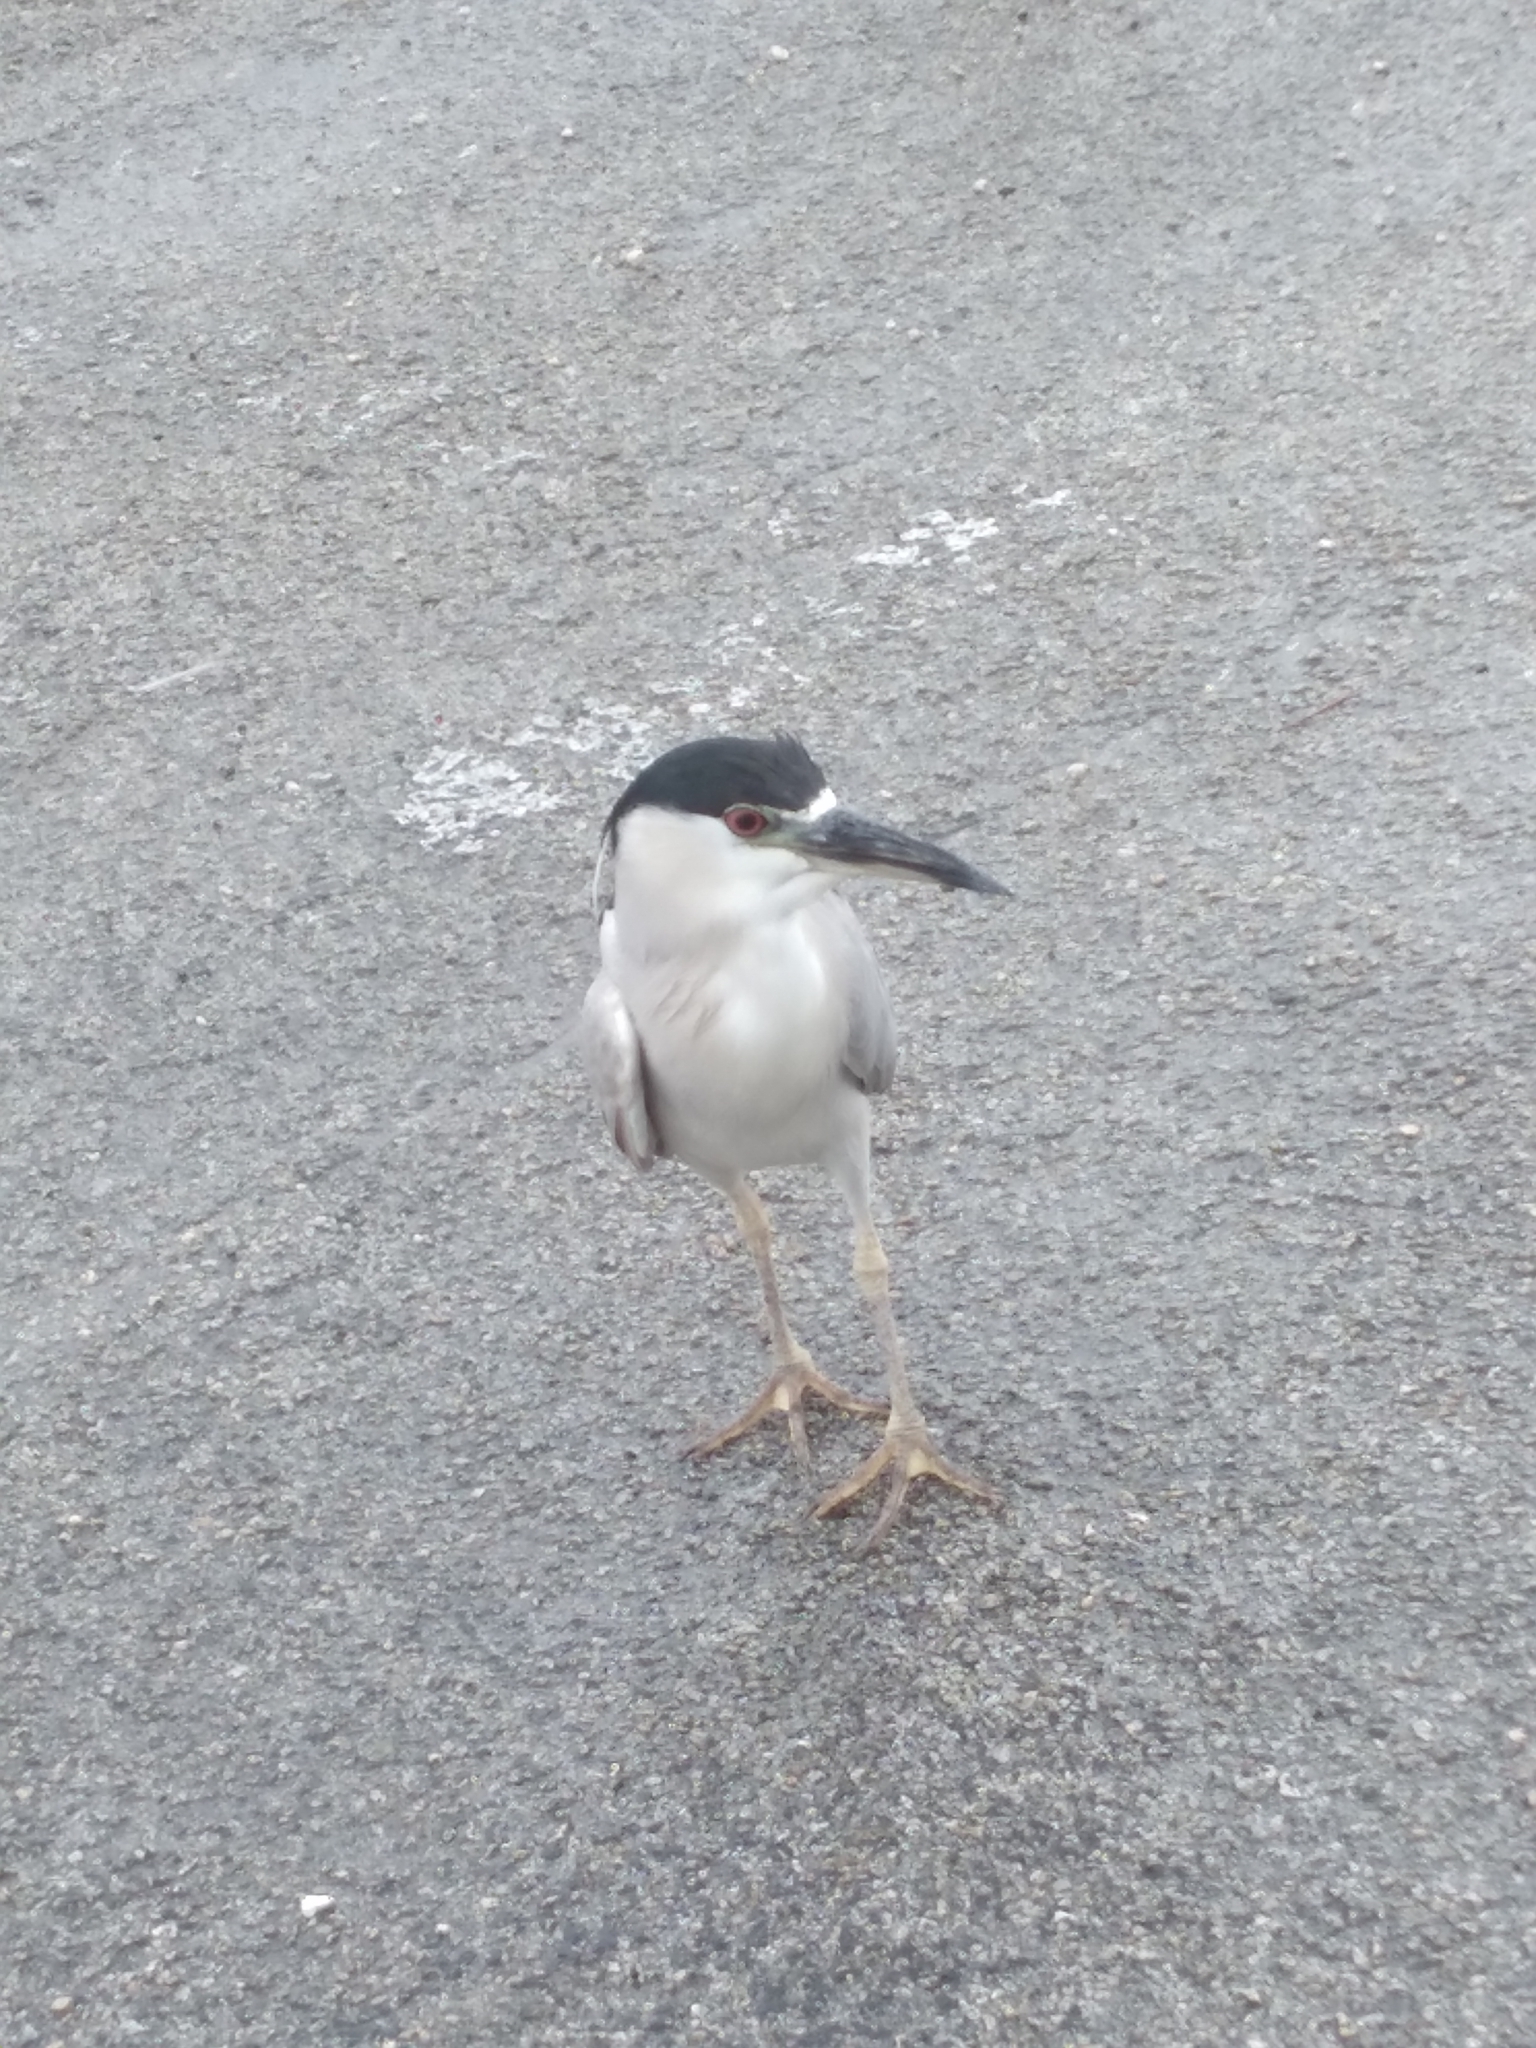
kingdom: Animalia
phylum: Chordata
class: Aves
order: Pelecaniformes
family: Ardeidae
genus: Nycticorax
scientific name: Nycticorax nycticorax
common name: Black-crowned night heron
